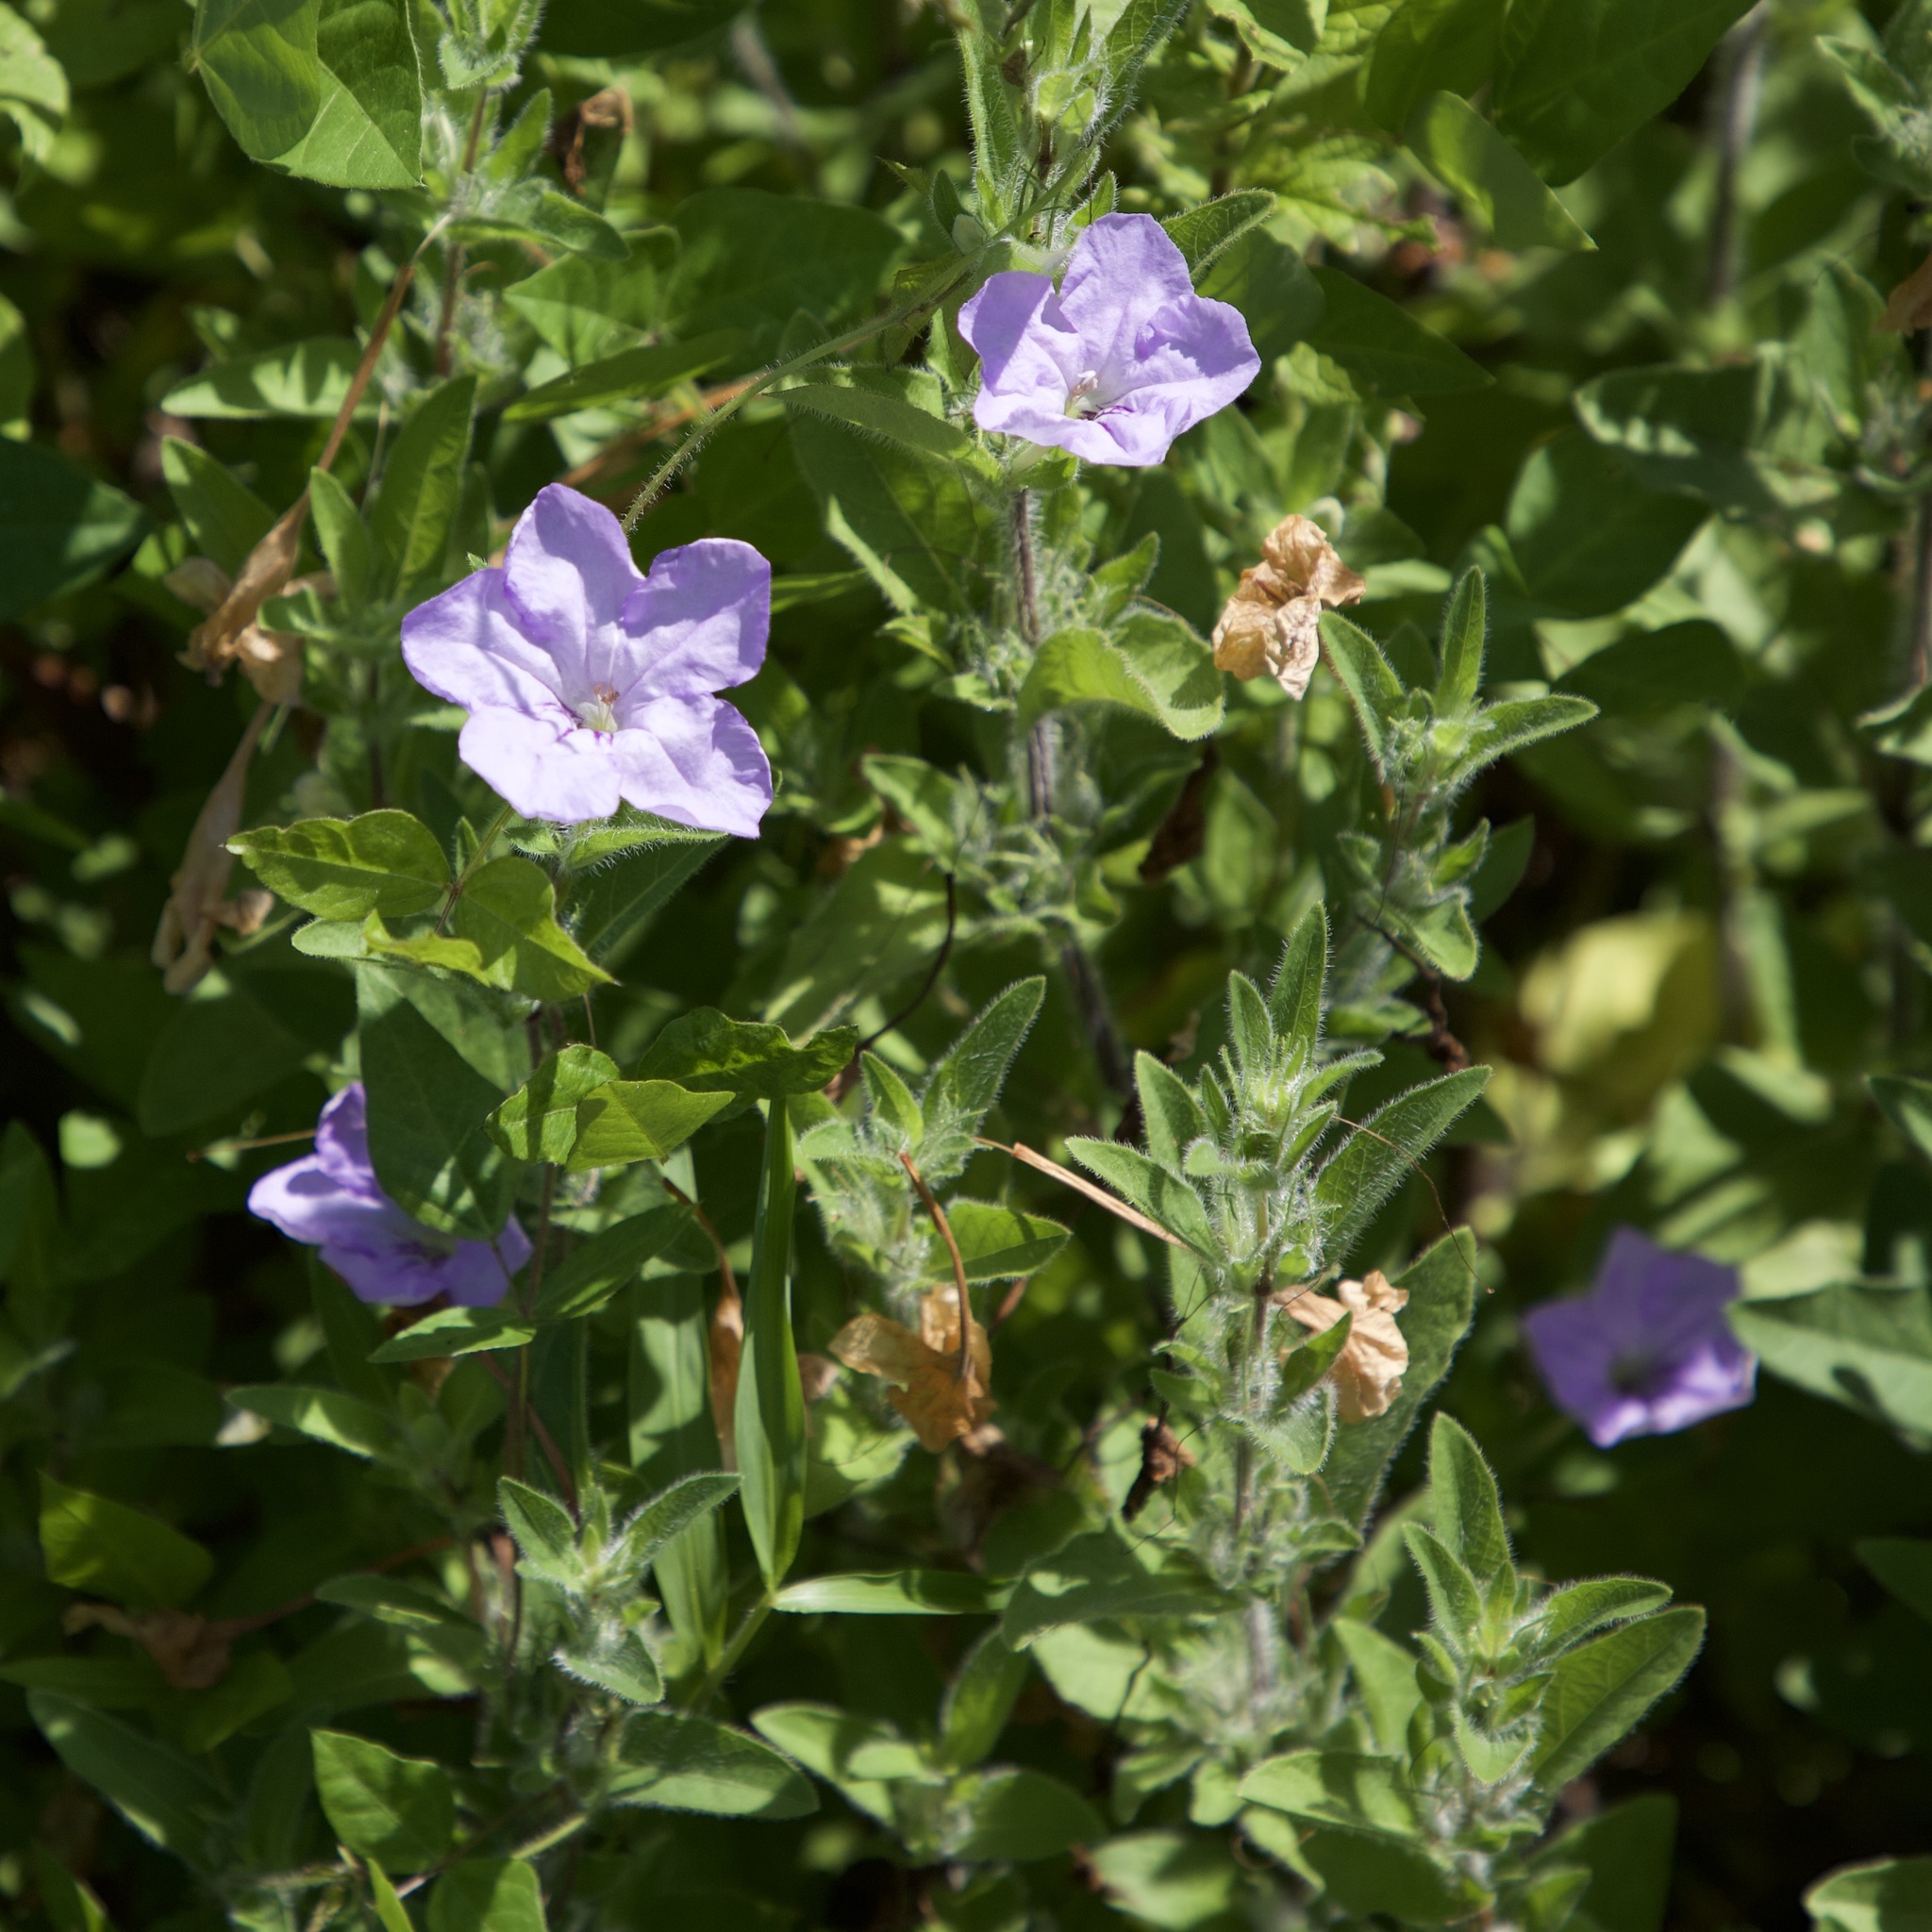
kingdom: Plantae
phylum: Tracheophyta
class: Magnoliopsida
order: Lamiales
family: Acanthaceae
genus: Ruellia
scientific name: Ruellia humilis
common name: Fringe-leaf ruellia
